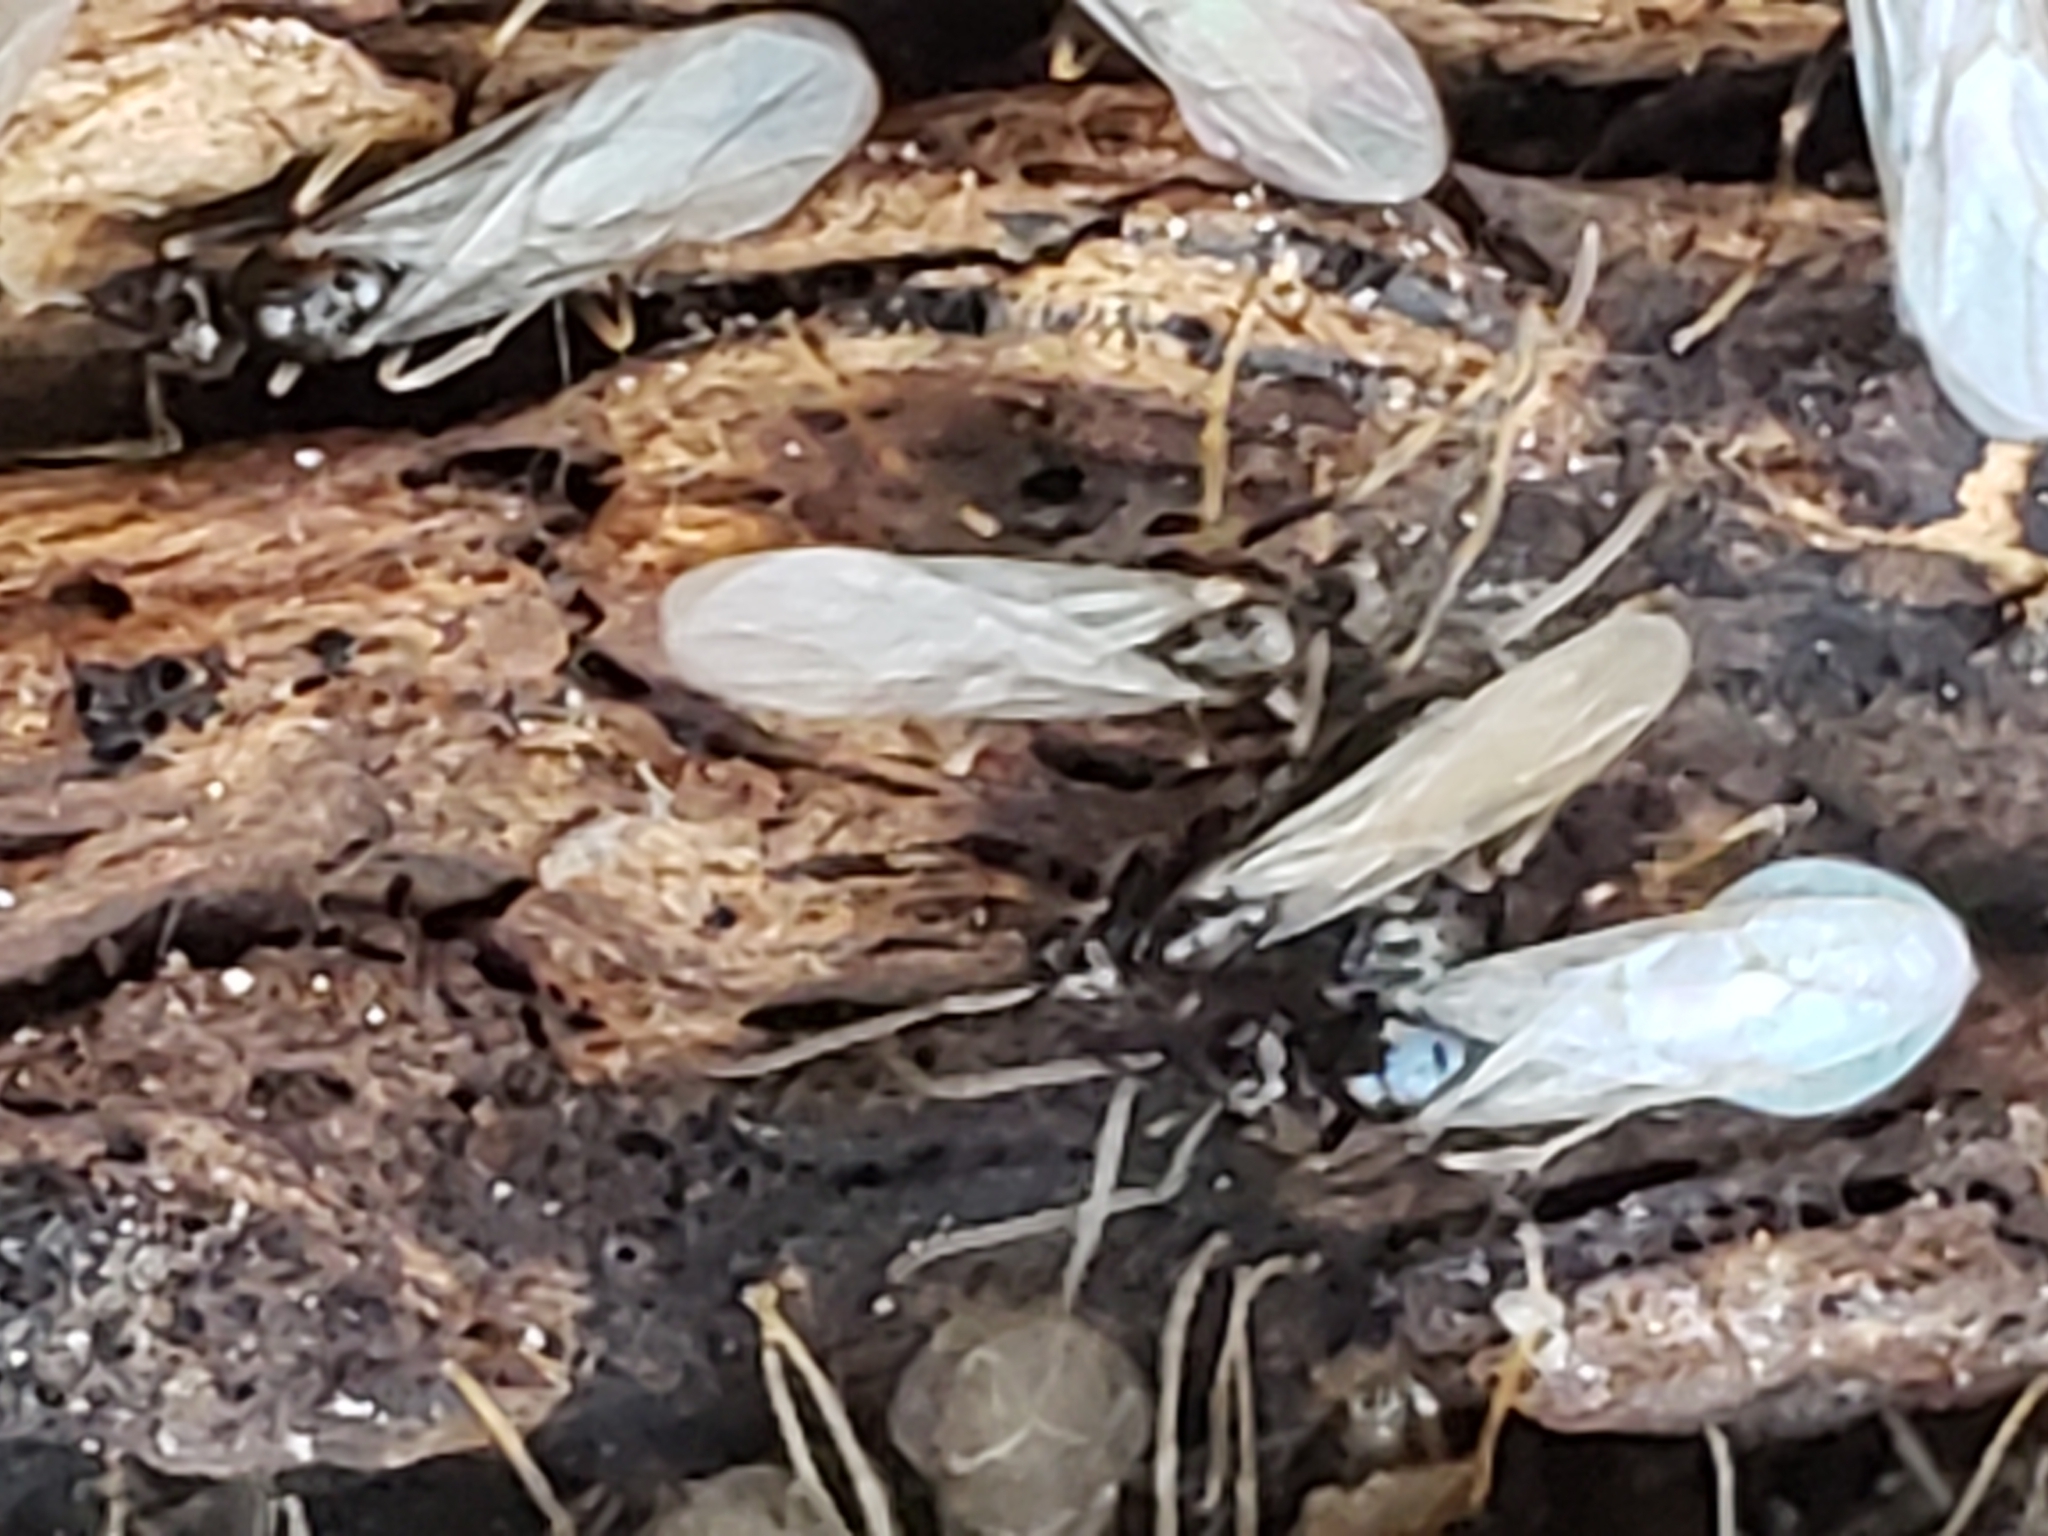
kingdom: Animalia
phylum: Arthropoda
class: Insecta
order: Hymenoptera
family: Formicidae
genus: Paratrechina
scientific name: Paratrechina flavipes
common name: Eastern asian formicine ant
